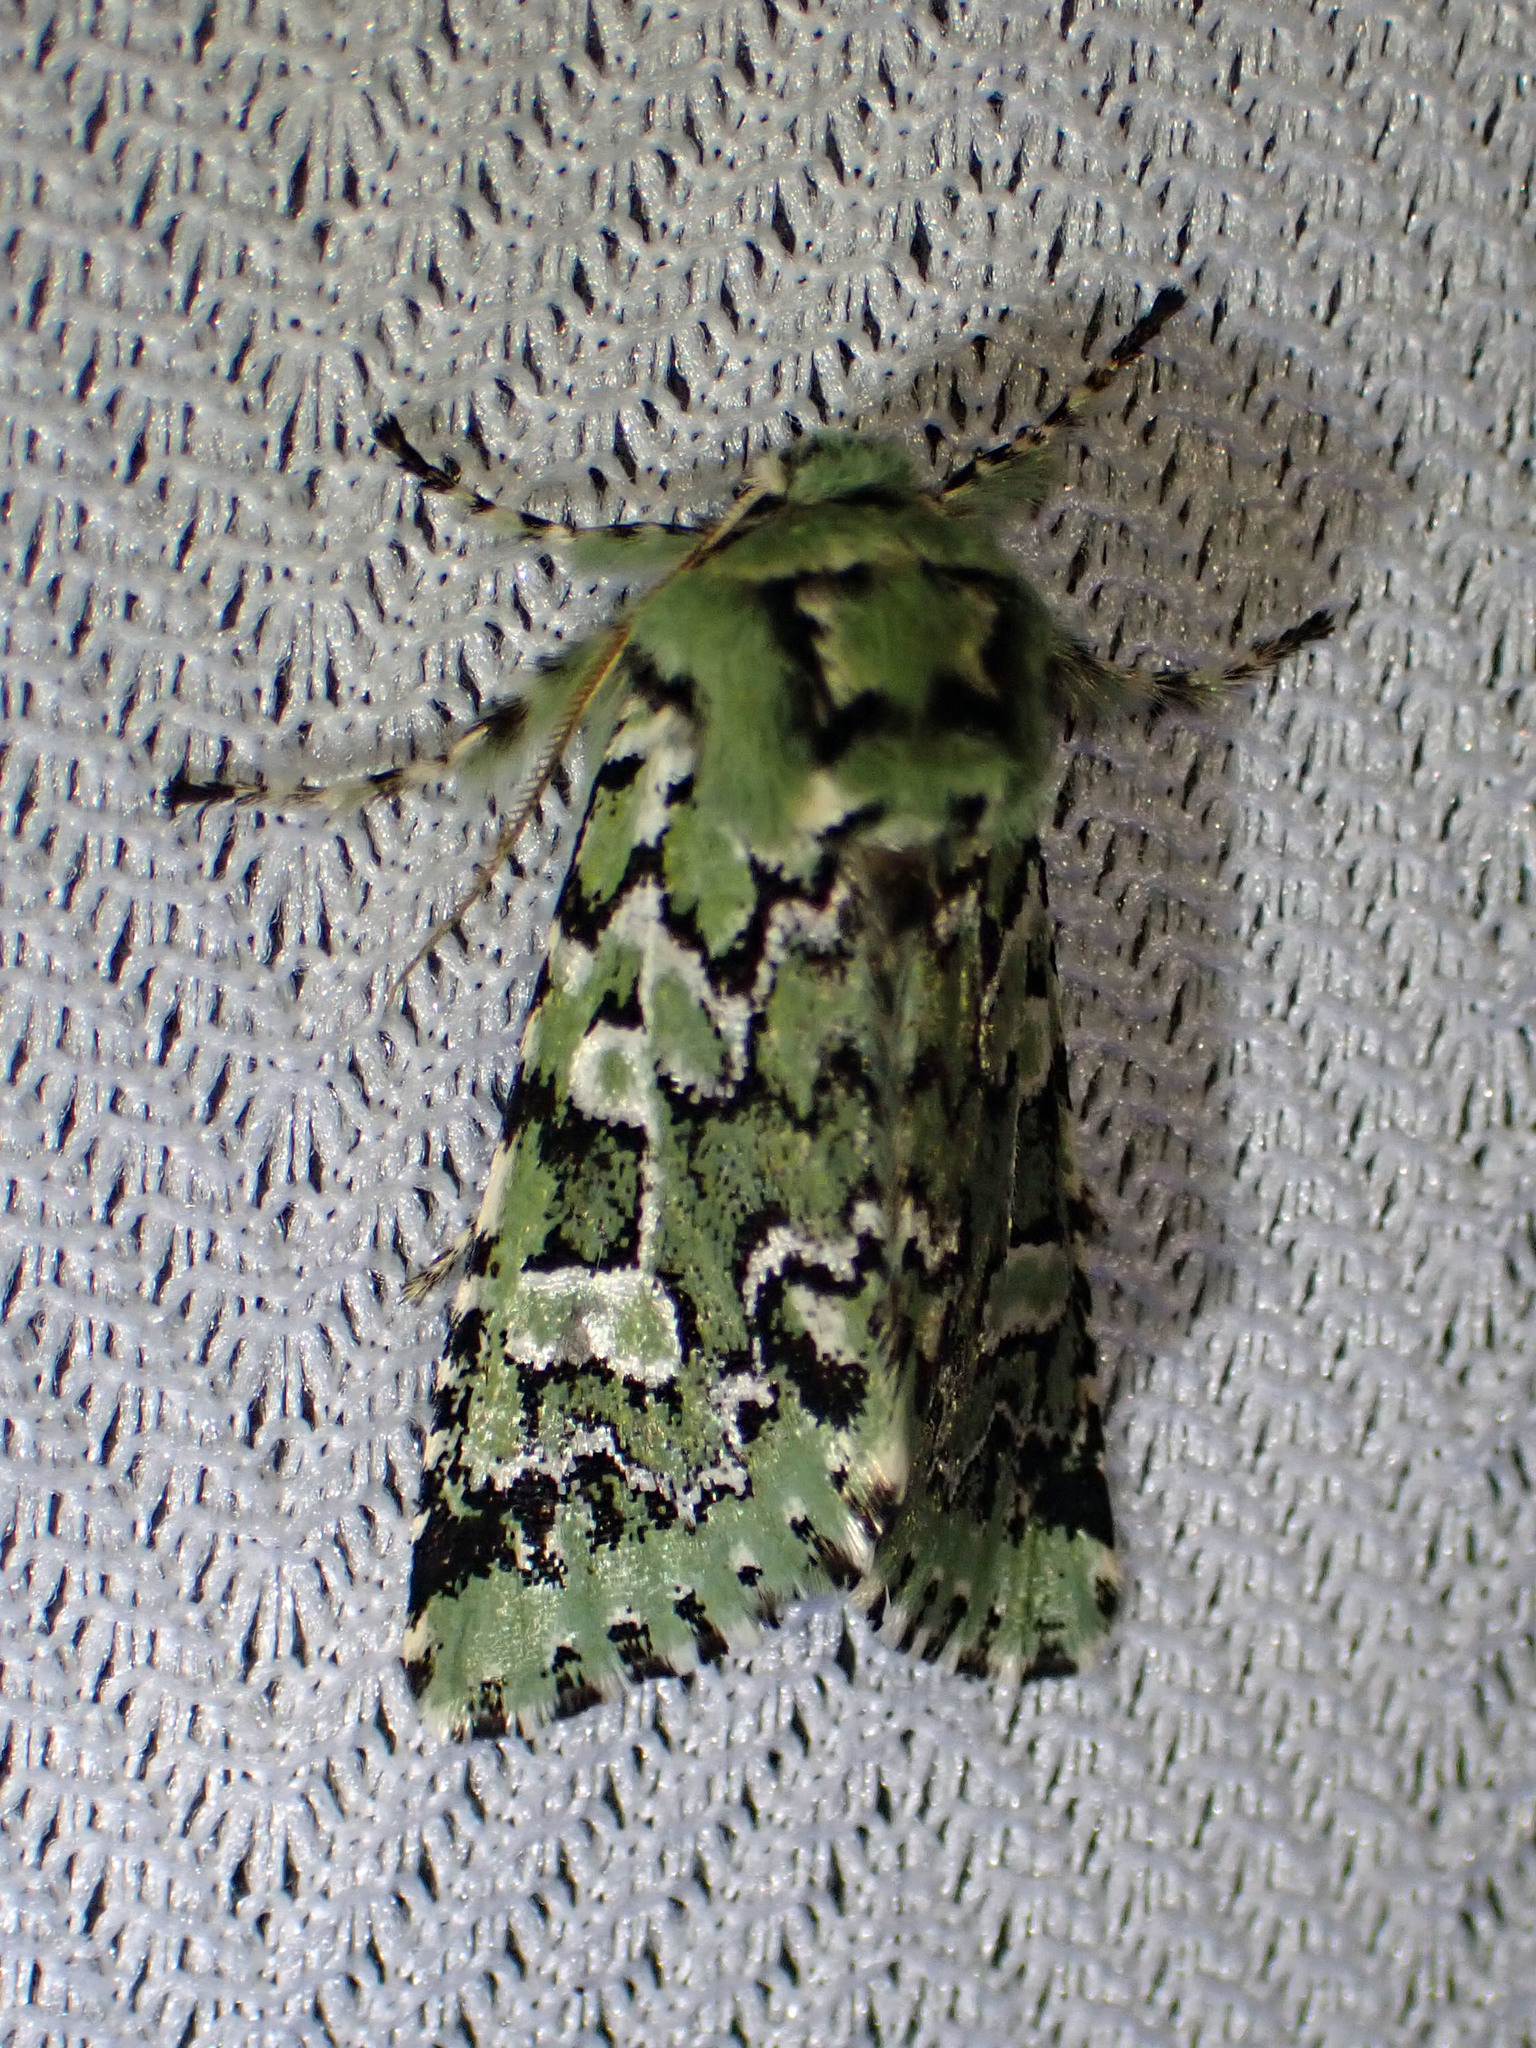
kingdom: Animalia
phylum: Arthropoda
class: Insecta
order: Lepidoptera
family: Noctuidae
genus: Feralia
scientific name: Feralia jocosa
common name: Joker
